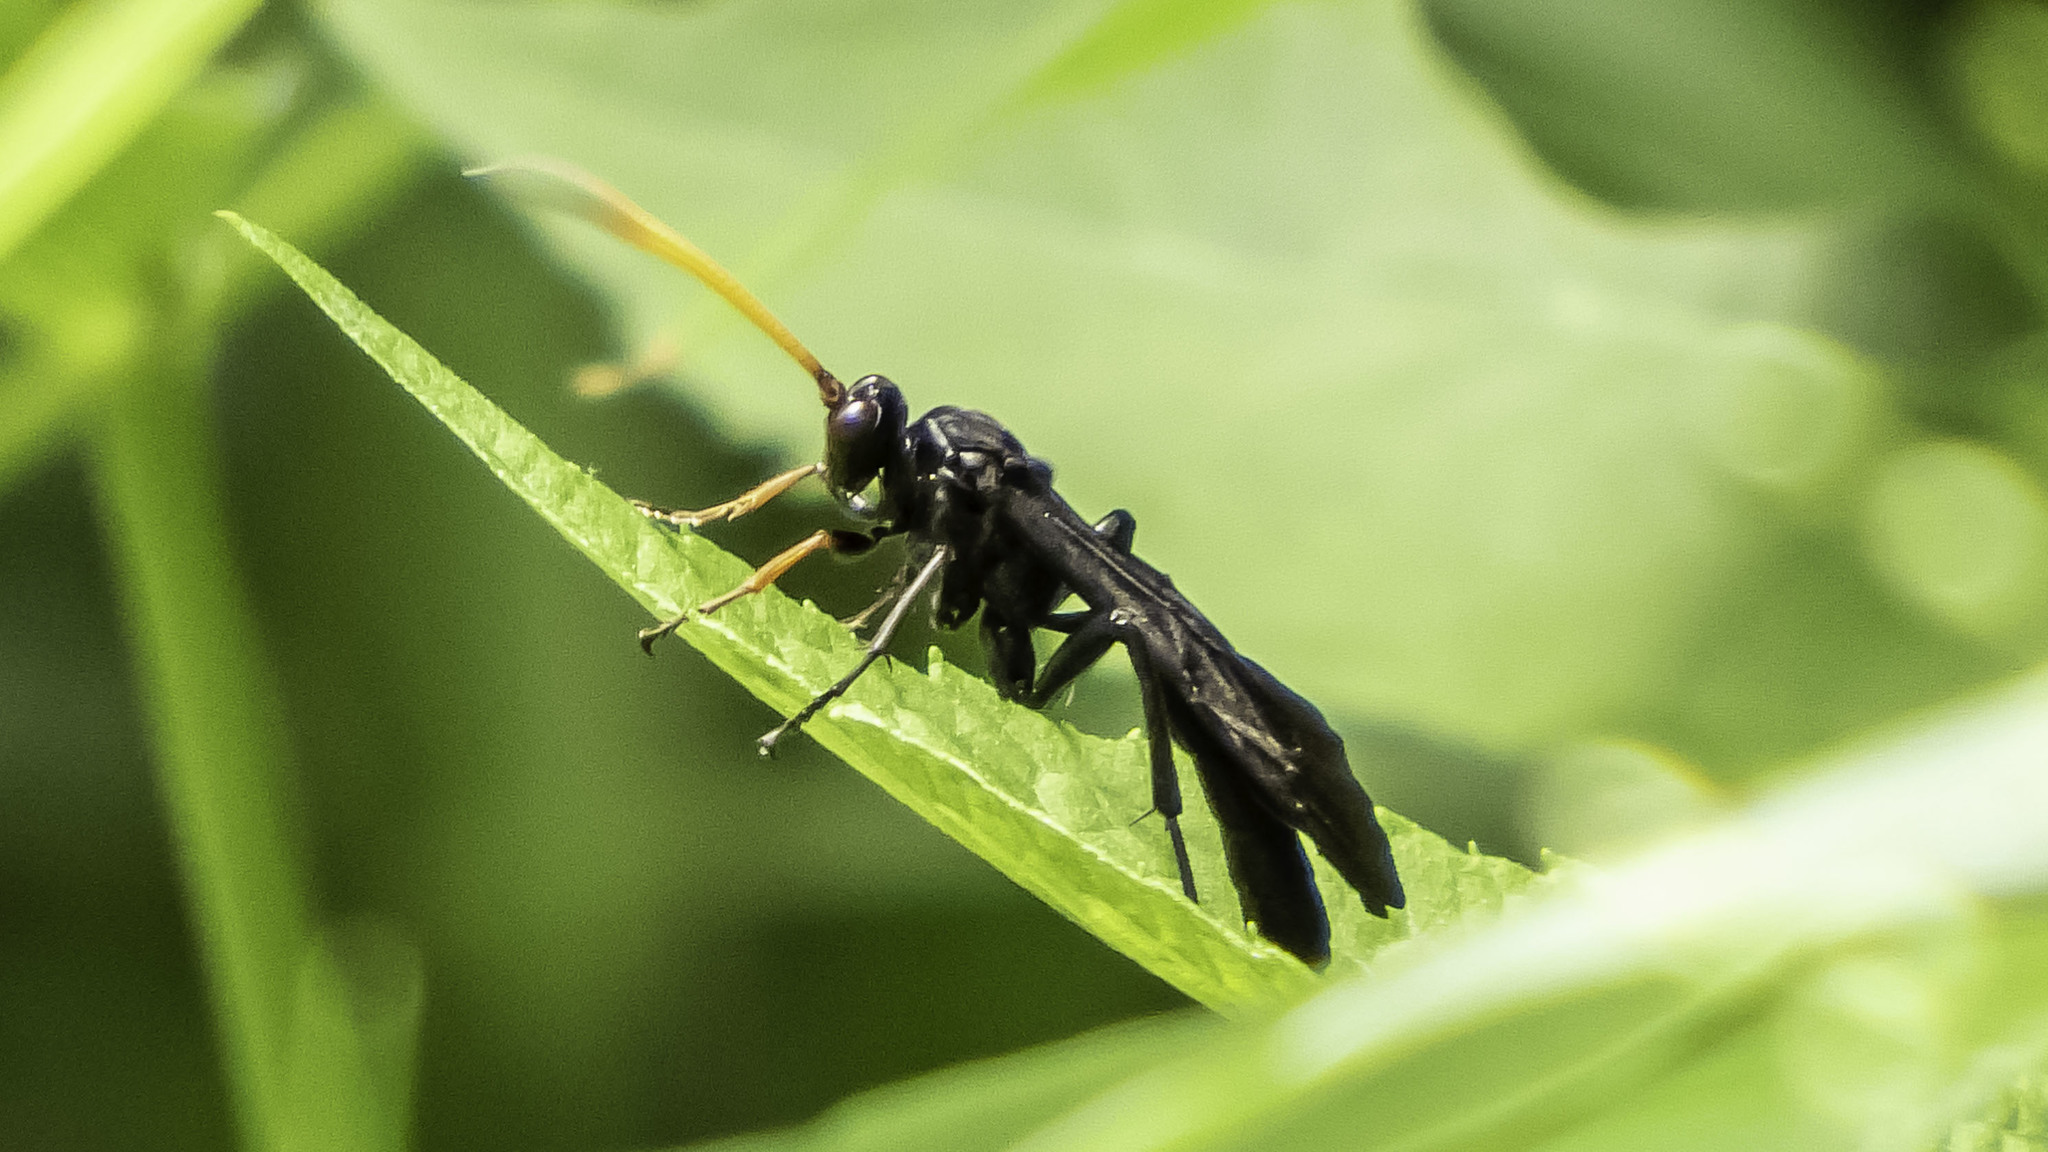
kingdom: Animalia
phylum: Arthropoda
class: Insecta
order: Hymenoptera
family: Ichneumonidae
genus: Gnamptopelta
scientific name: Gnamptopelta obsidianator
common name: Bent-shielded besieger wasp
